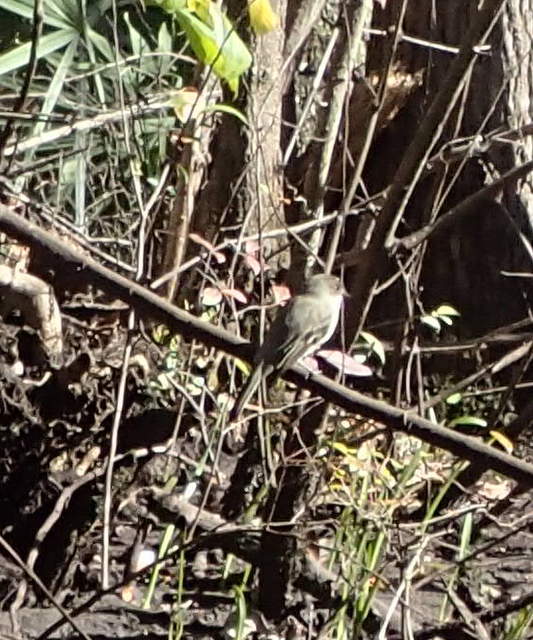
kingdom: Animalia
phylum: Chordata
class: Aves
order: Passeriformes
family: Tyrannidae
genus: Sayornis
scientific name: Sayornis phoebe
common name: Eastern phoebe
